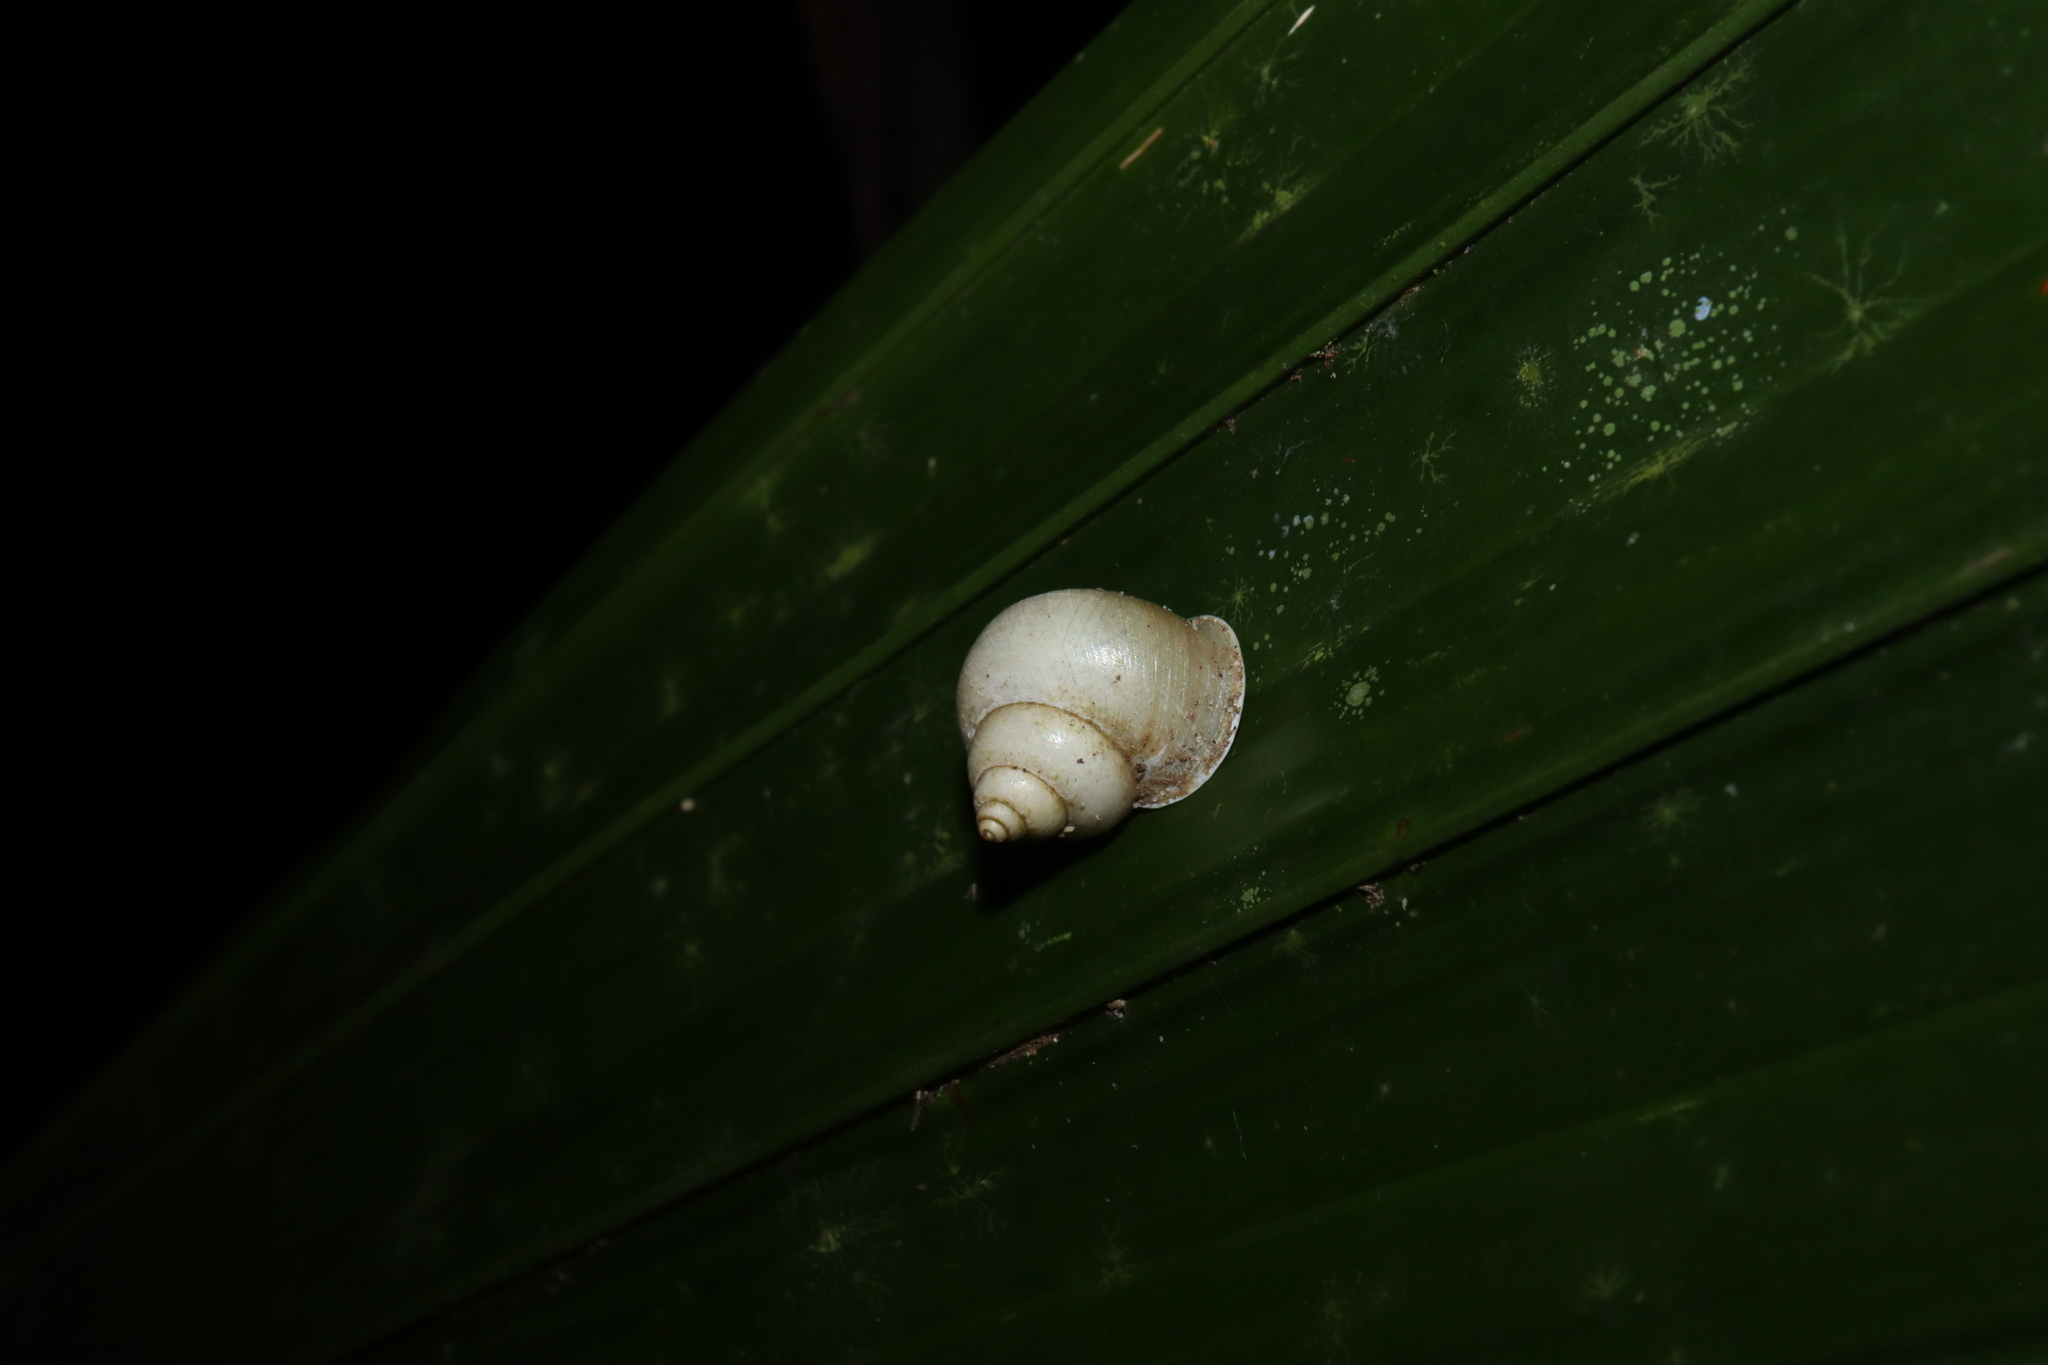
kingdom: Animalia
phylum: Mollusca
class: Gastropoda
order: Architaenioglossa
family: Cyclophoridae
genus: Leptopoma
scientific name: Leptopoma perlucidum
